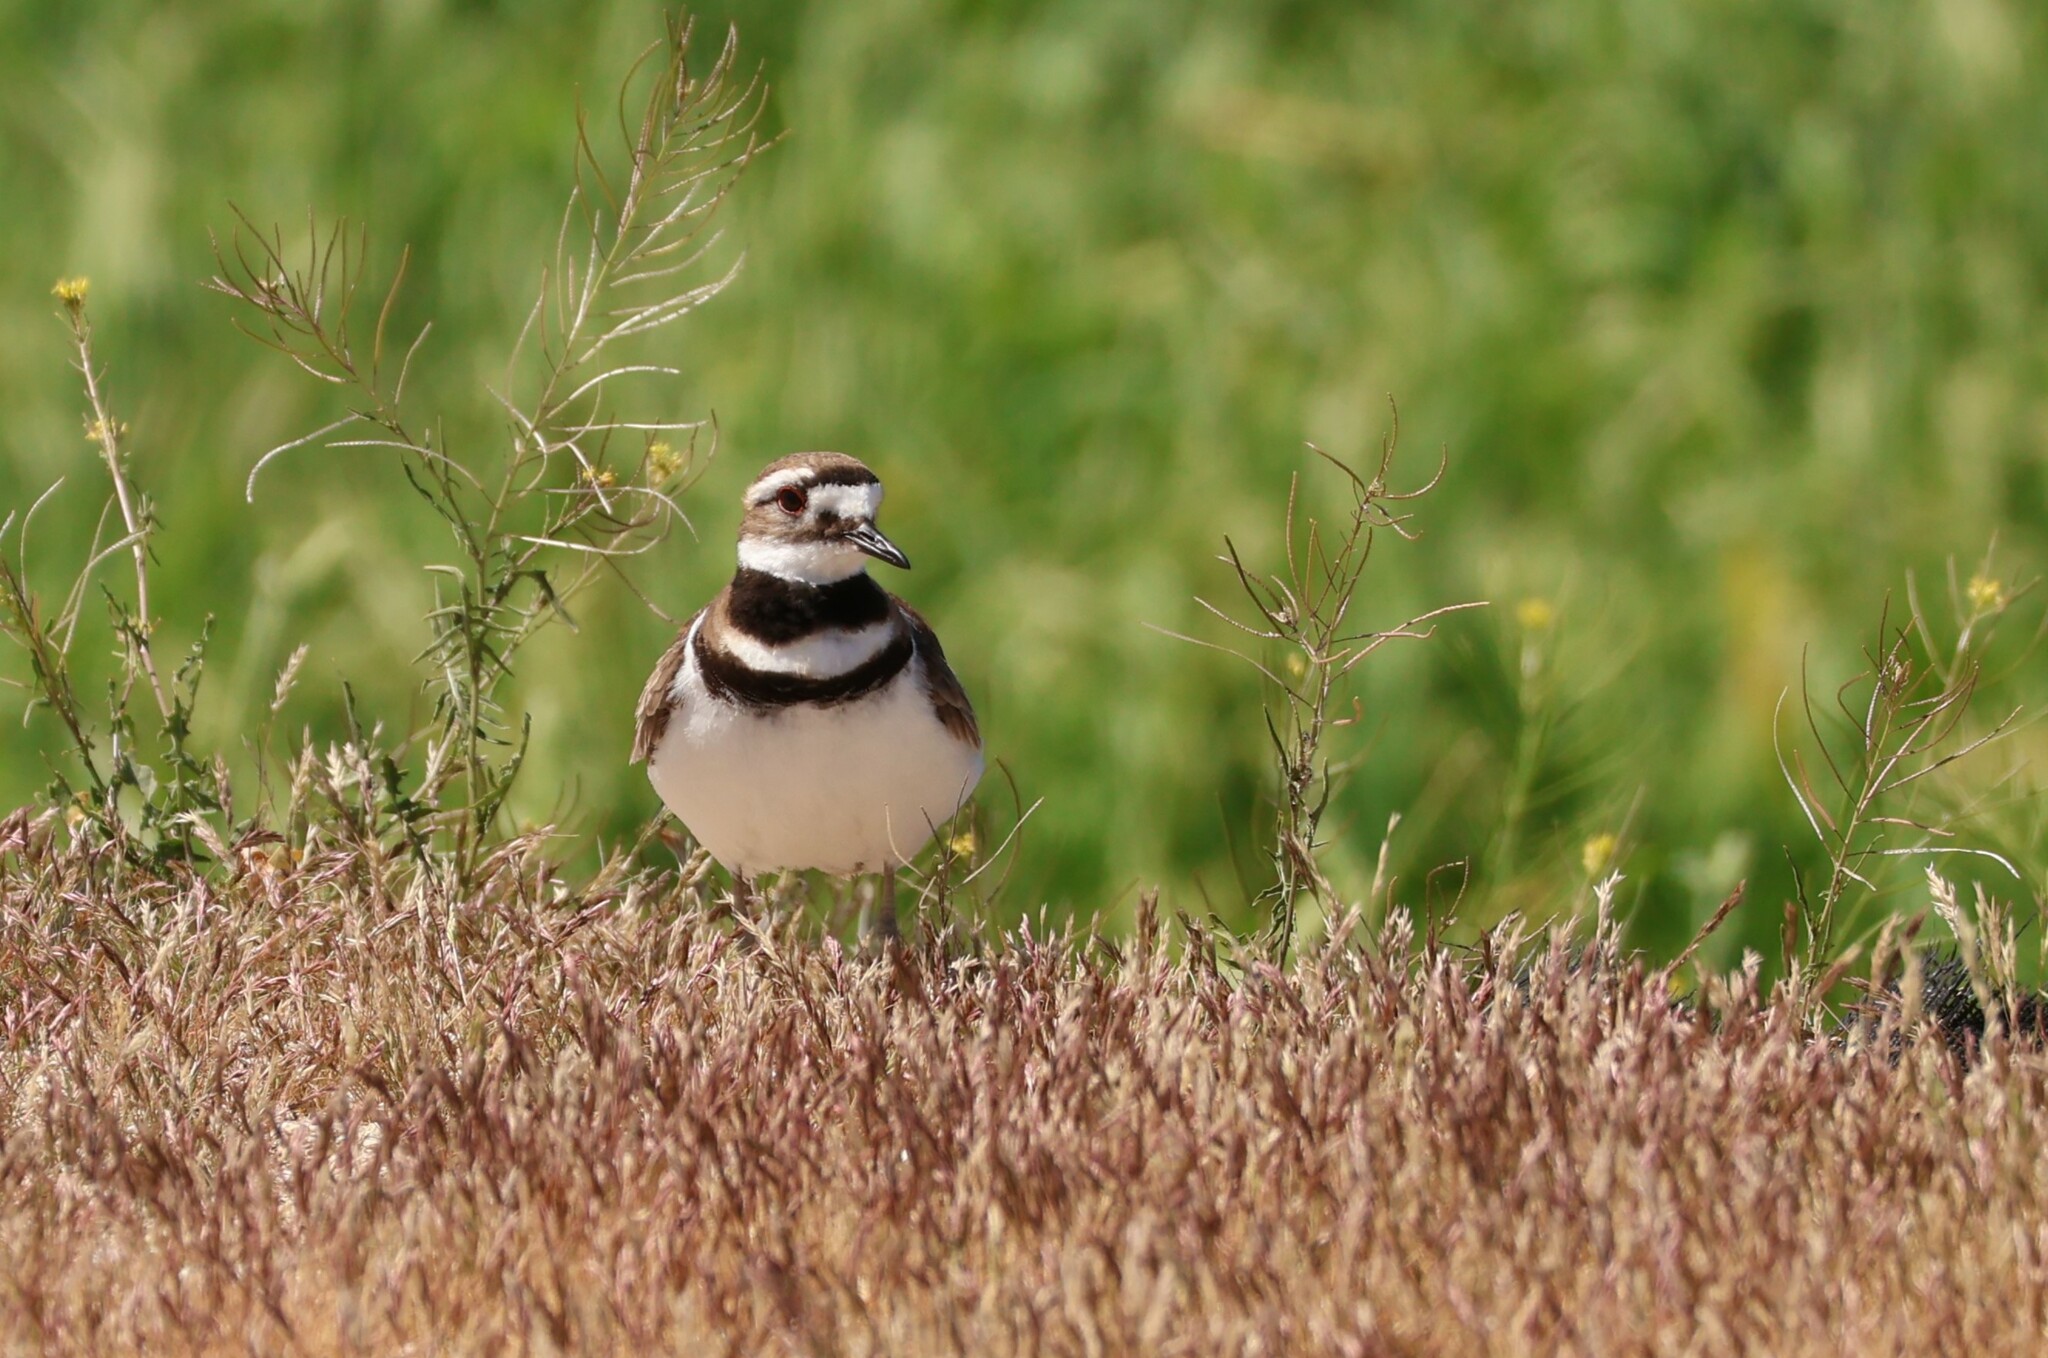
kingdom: Animalia
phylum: Chordata
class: Aves
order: Charadriiformes
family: Charadriidae
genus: Charadrius
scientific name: Charadrius vociferus
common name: Killdeer
